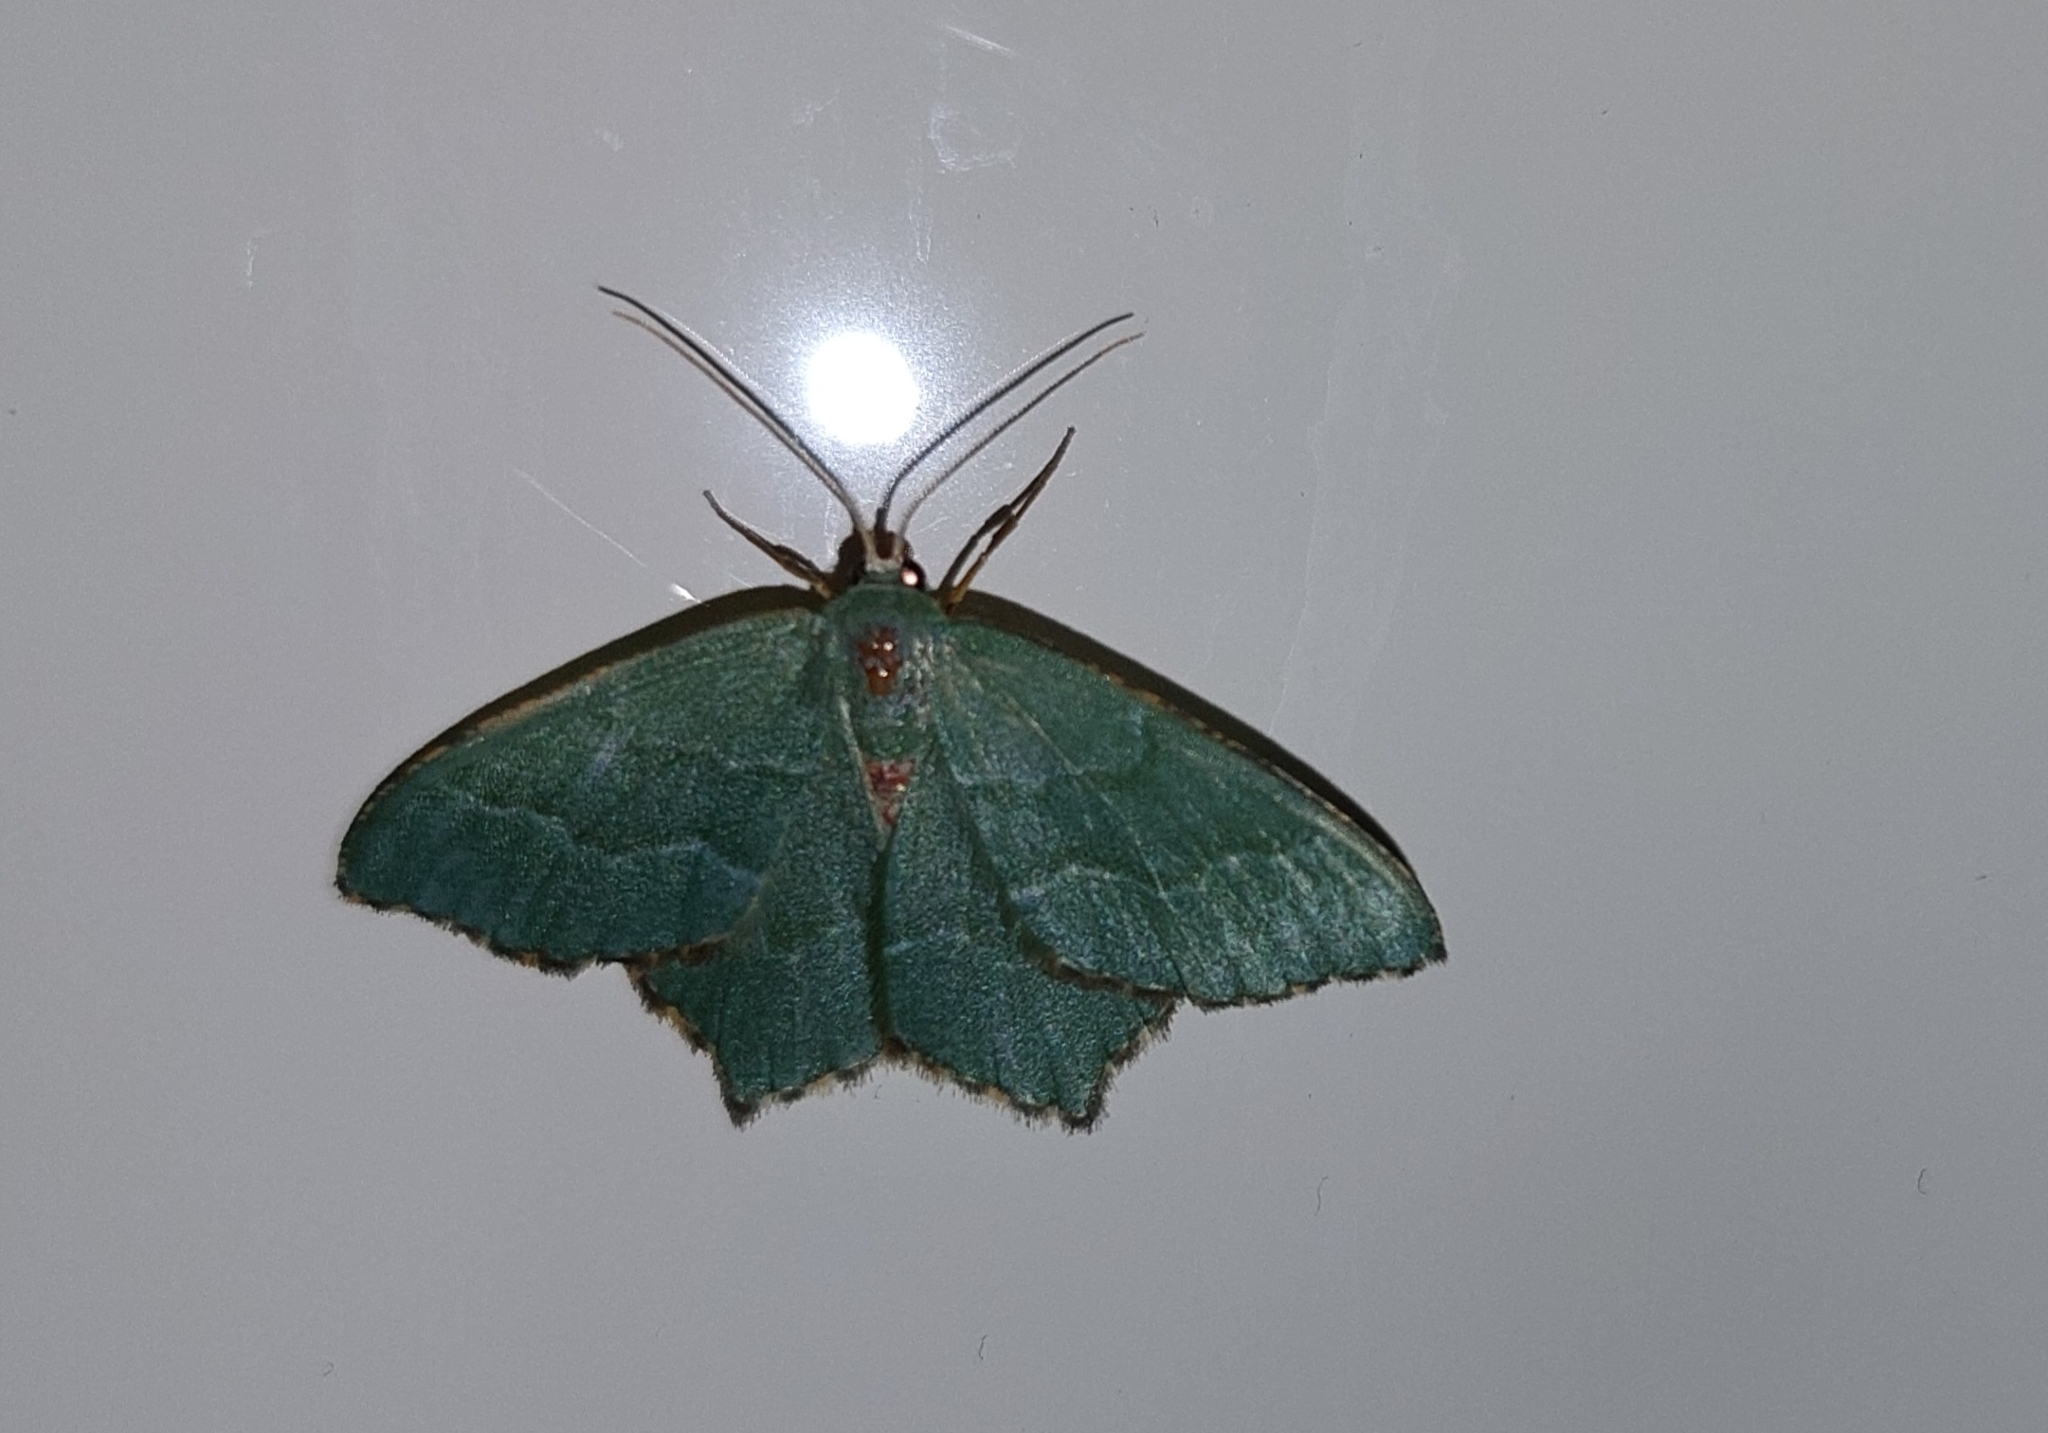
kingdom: Animalia
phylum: Arthropoda
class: Insecta
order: Lepidoptera
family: Geometridae
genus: Hemithea
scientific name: Hemithea aestivaria
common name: Common emerald
